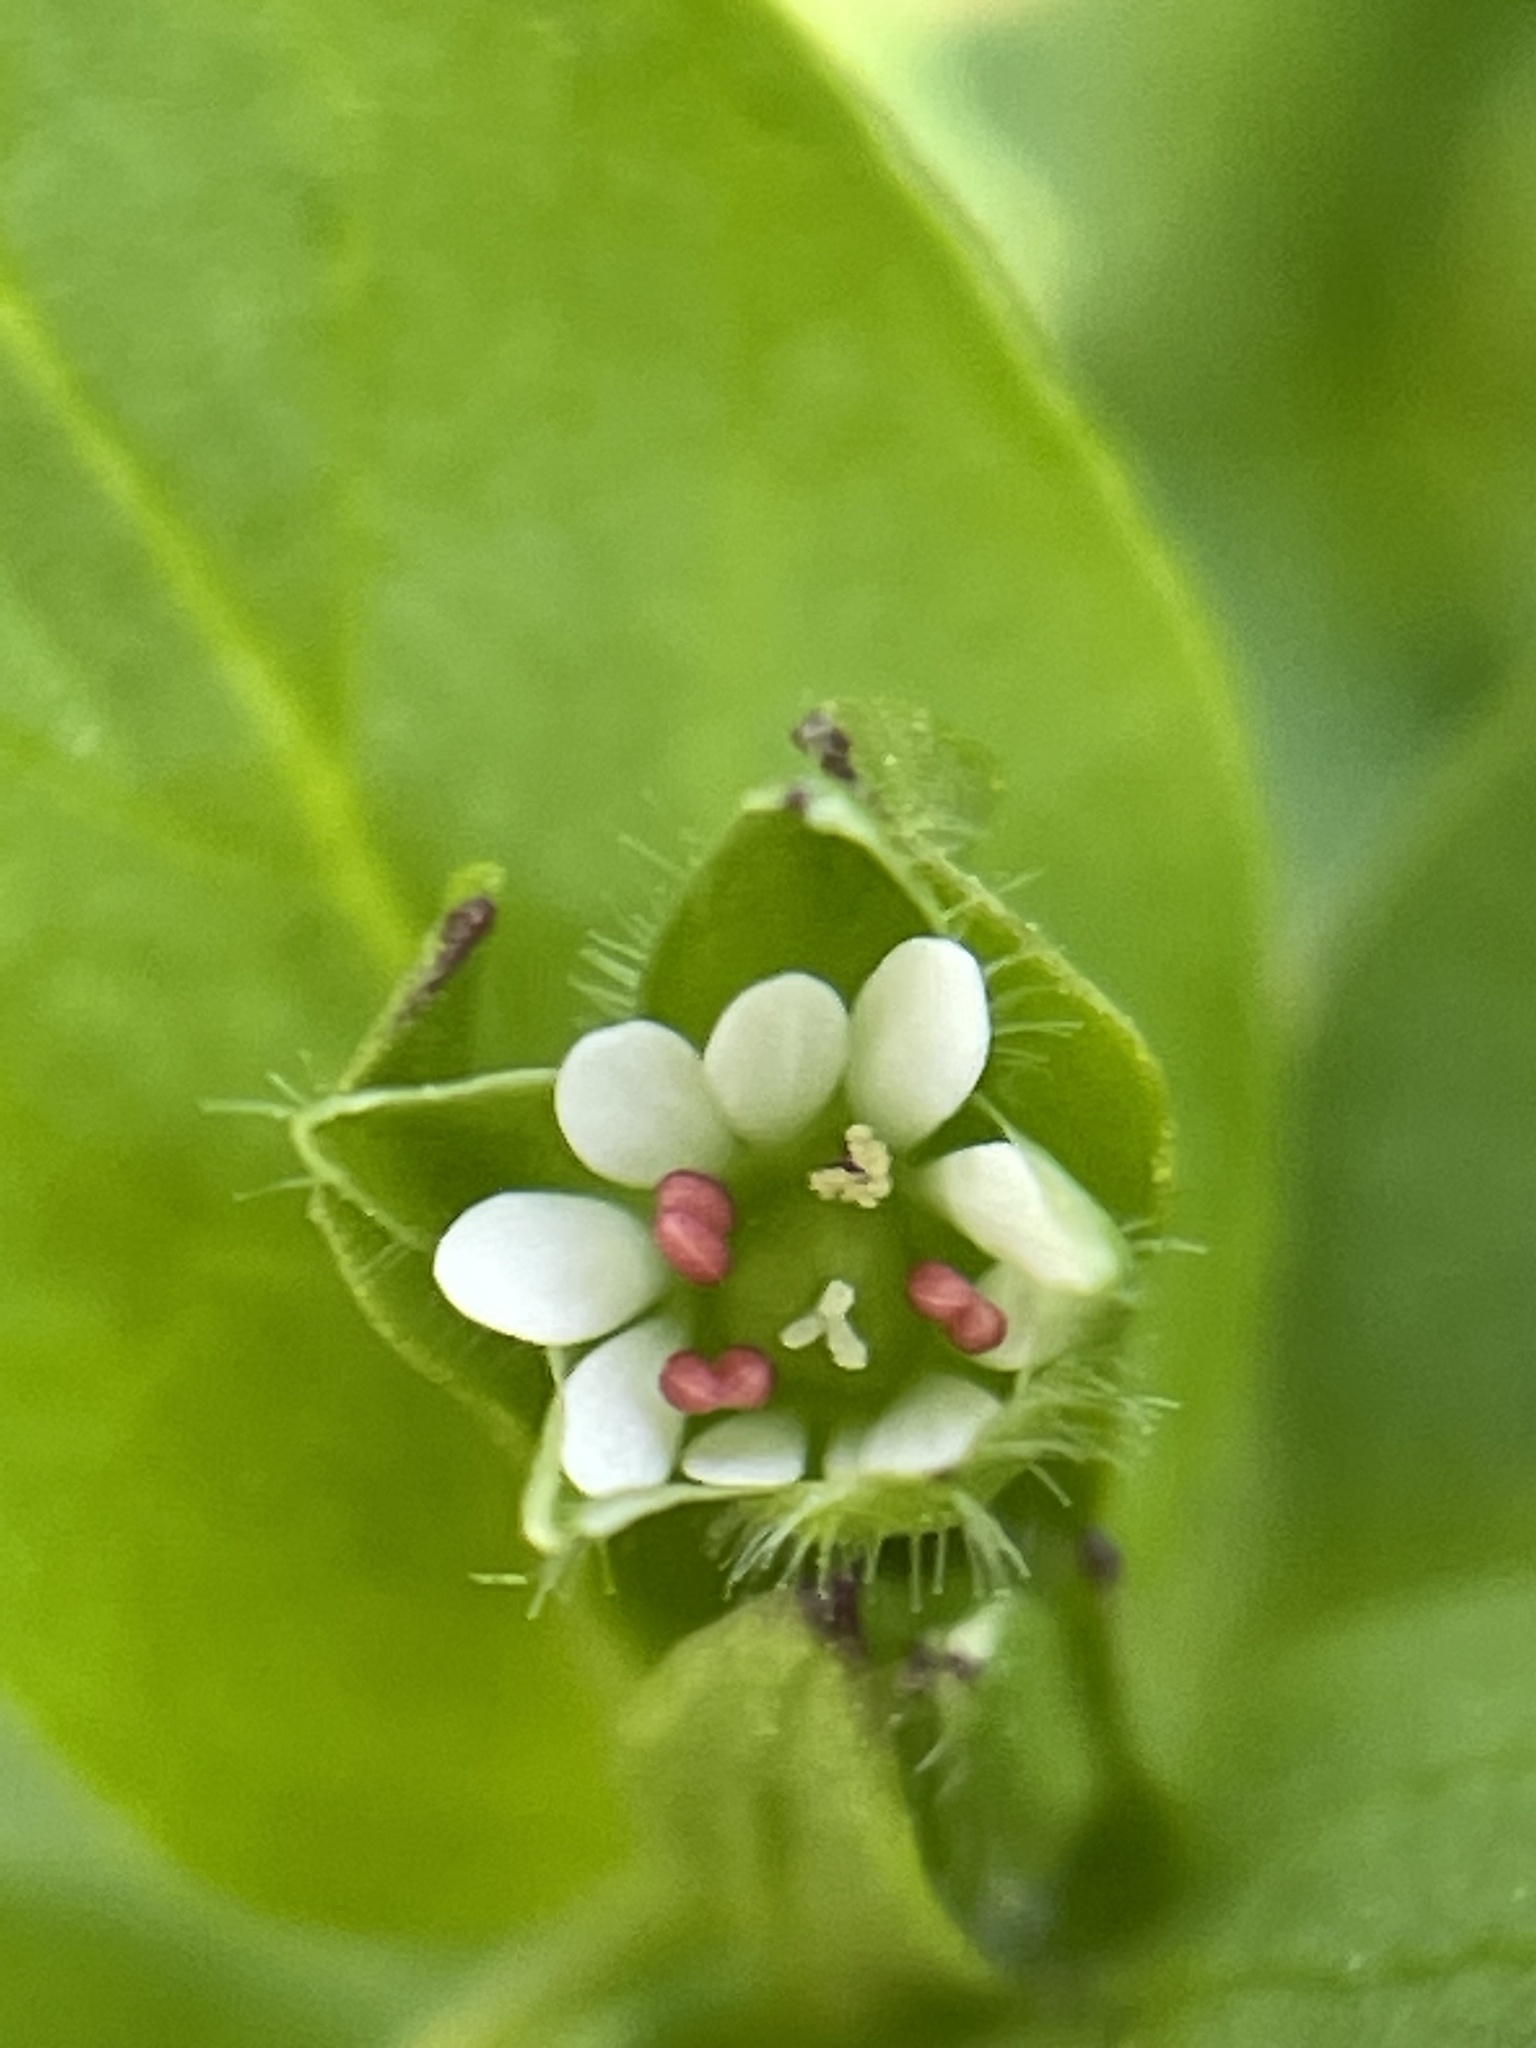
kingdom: Plantae
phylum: Tracheophyta
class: Magnoliopsida
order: Caryophyllales
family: Caryophyllaceae
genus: Stellaria
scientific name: Stellaria media
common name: Common chickweed
